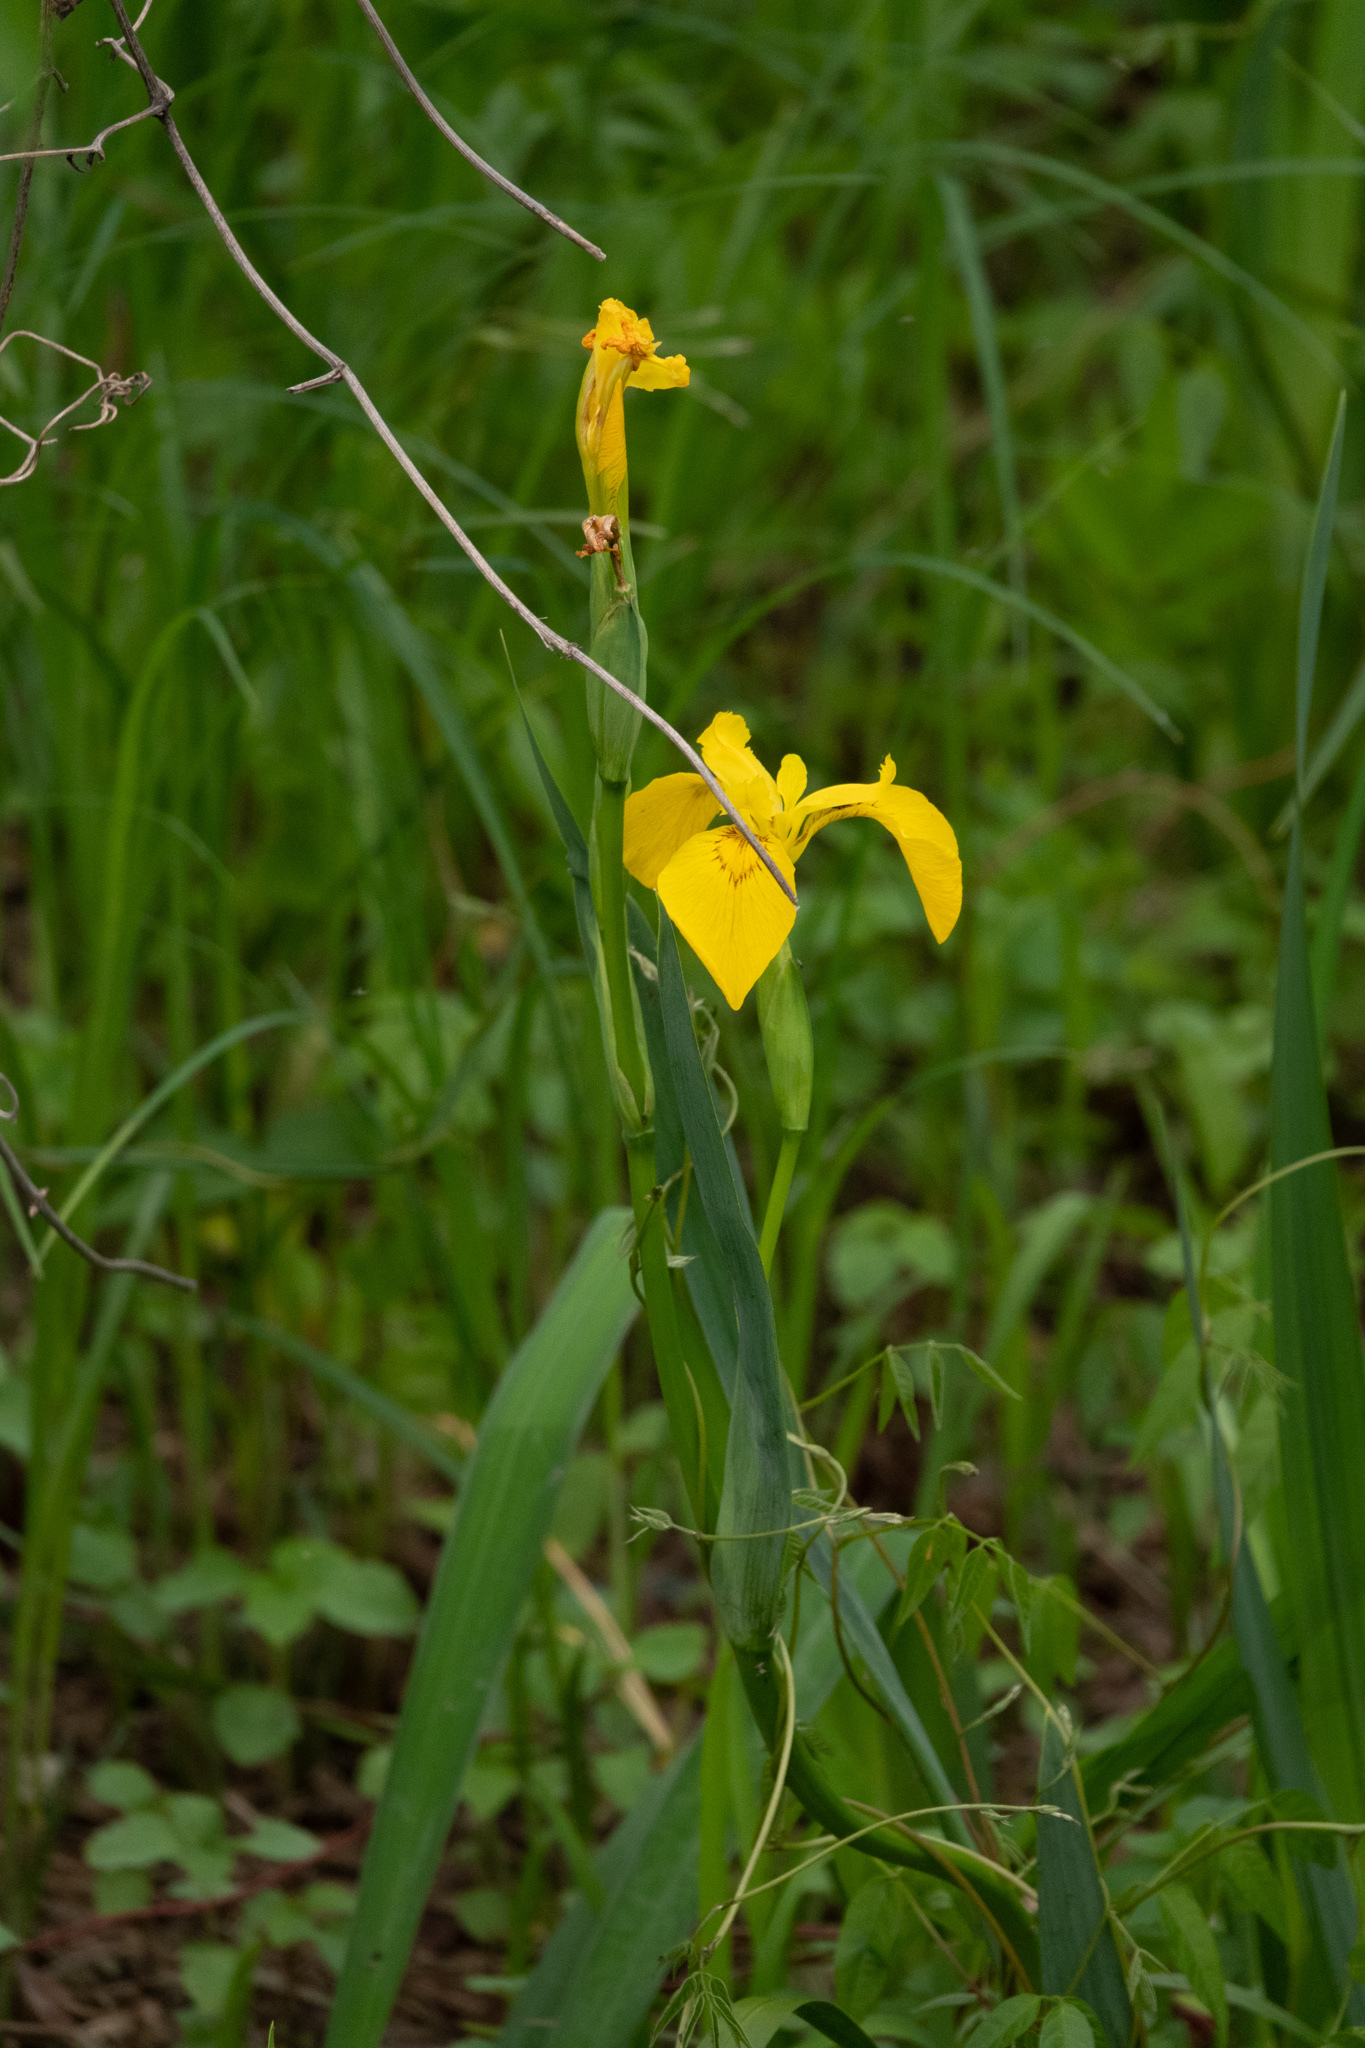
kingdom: Plantae
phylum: Tracheophyta
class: Liliopsida
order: Asparagales
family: Iridaceae
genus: Iris
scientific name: Iris pseudacorus
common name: Yellow flag
